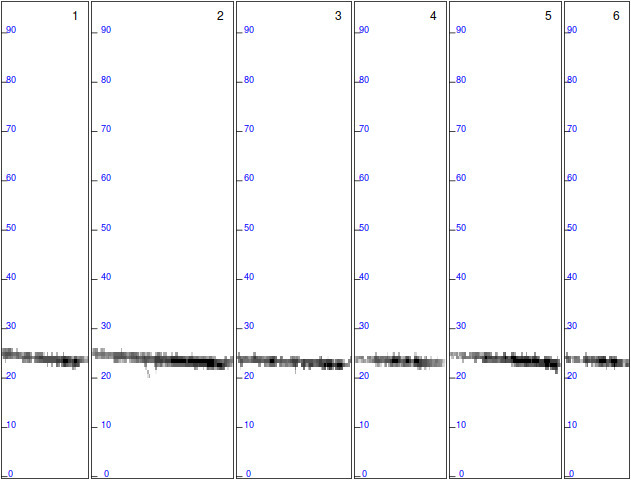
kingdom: Animalia
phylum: Chordata
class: Mammalia
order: Chiroptera
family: Vespertilionidae
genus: Nyctalus
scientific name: Nyctalus leisleri
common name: Lesser noctule
